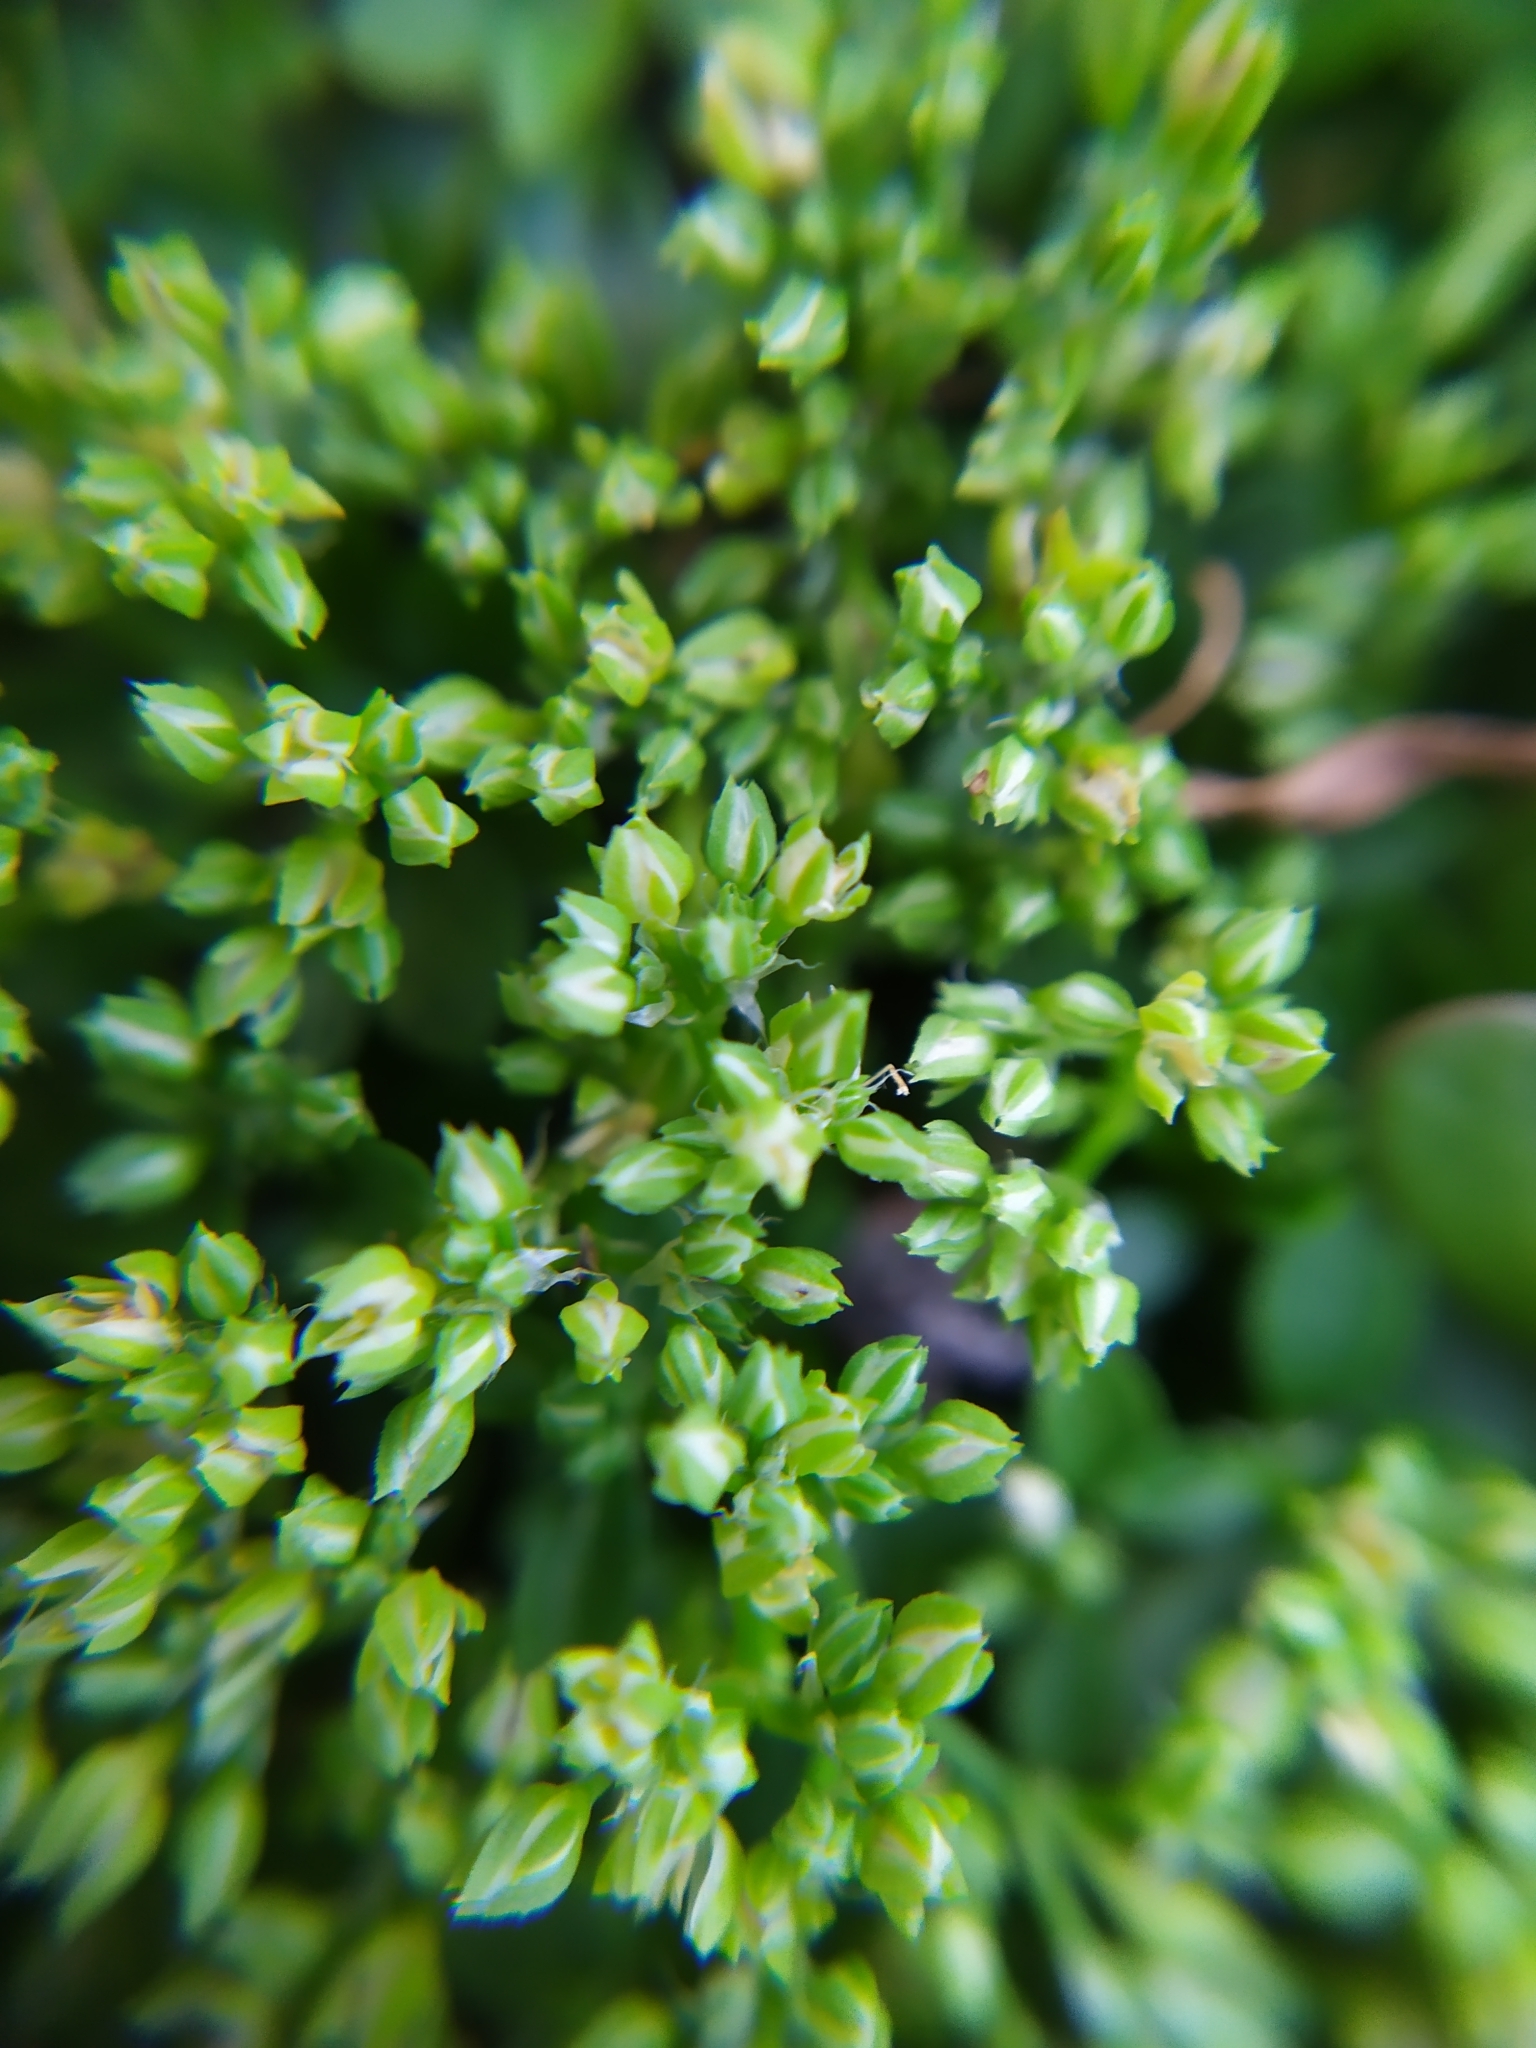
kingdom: Plantae
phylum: Tracheophyta
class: Magnoliopsida
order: Caryophyllales
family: Caryophyllaceae
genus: Polycarpon
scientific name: Polycarpon tetraphyllum
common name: Four-leaved all-seed
